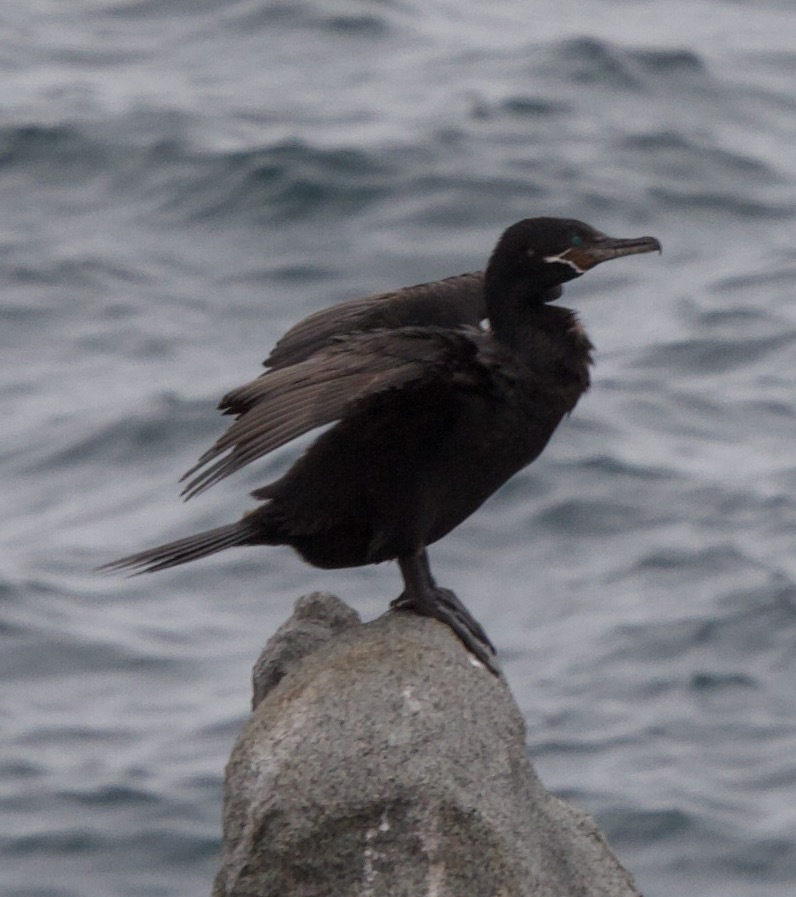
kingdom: Animalia
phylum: Chordata
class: Aves
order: Suliformes
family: Phalacrocoracidae
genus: Phalacrocorax
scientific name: Phalacrocorax brasilianus
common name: Neotropic cormorant
